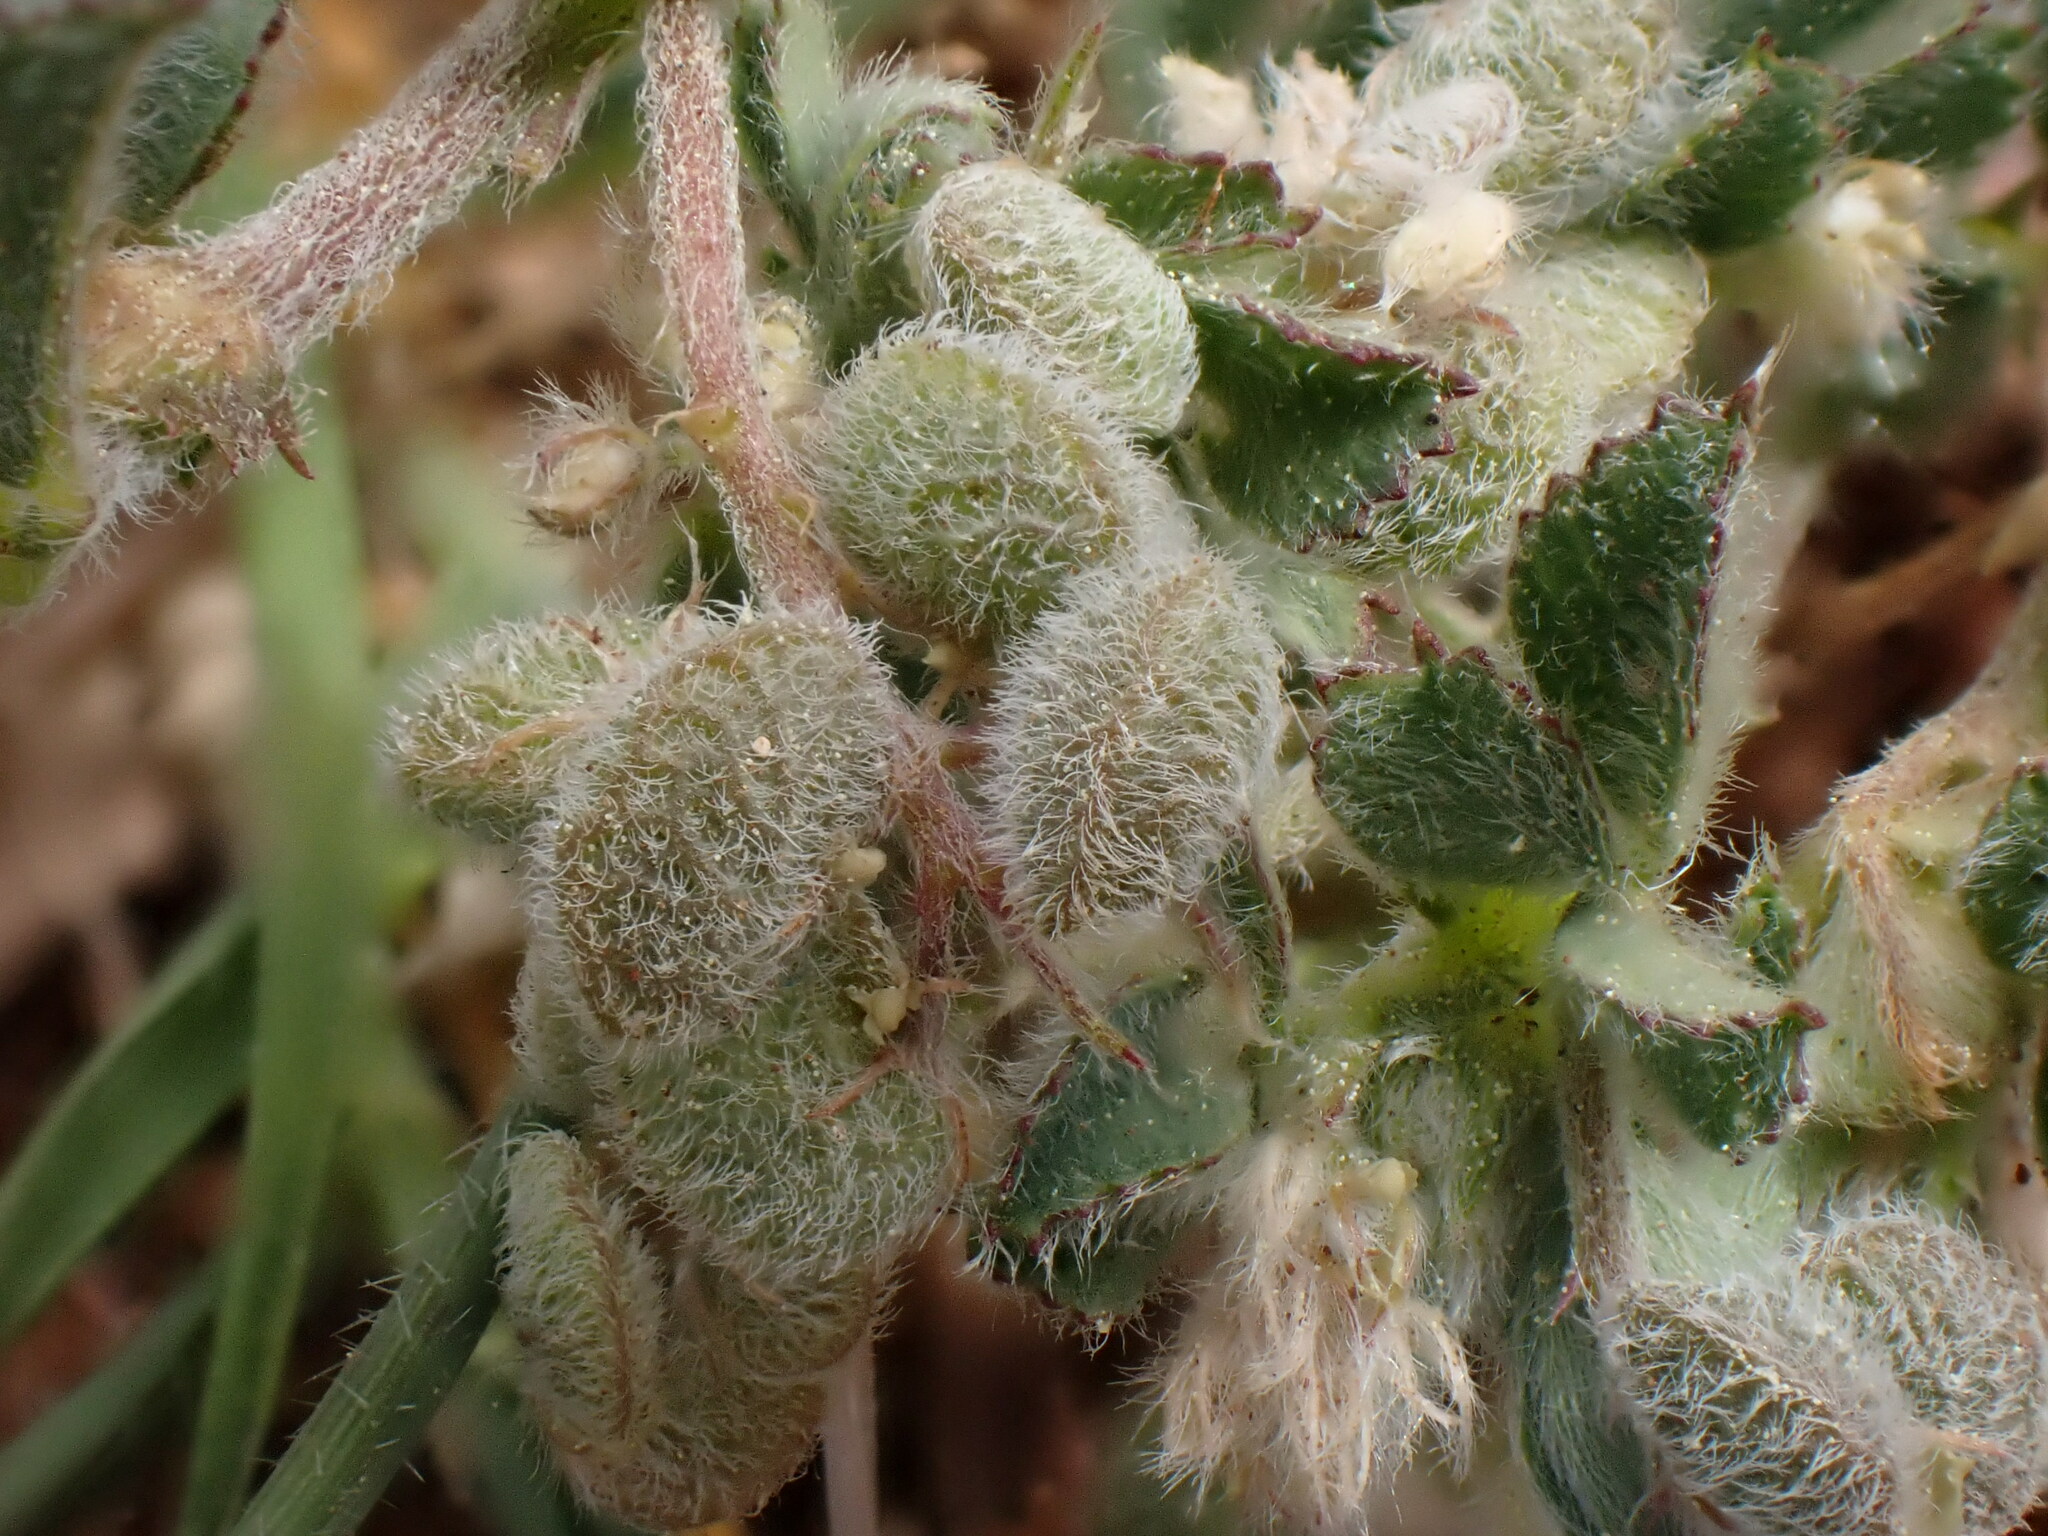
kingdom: Plantae
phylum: Tracheophyta
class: Magnoliopsida
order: Fabales
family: Fabaceae
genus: Medicago
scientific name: Medicago secundiflora
